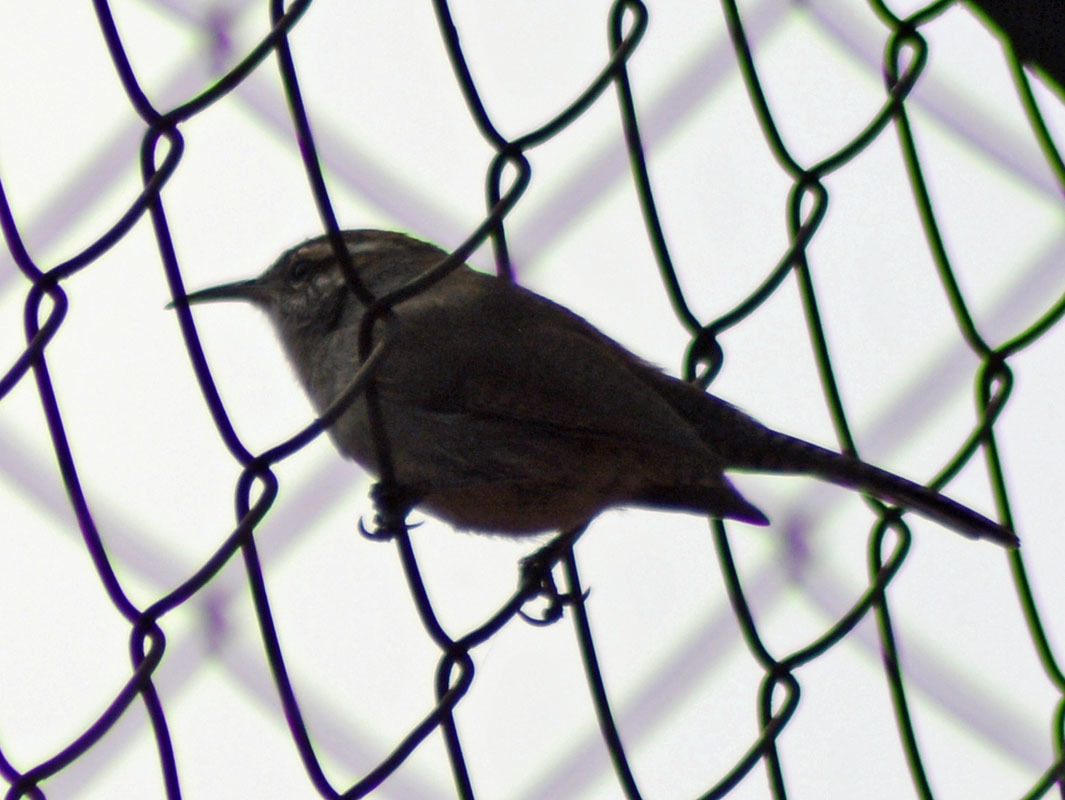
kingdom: Animalia
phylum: Chordata
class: Aves
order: Passeriformes
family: Troglodytidae
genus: Thryomanes
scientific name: Thryomanes bewickii
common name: Bewick's wren
